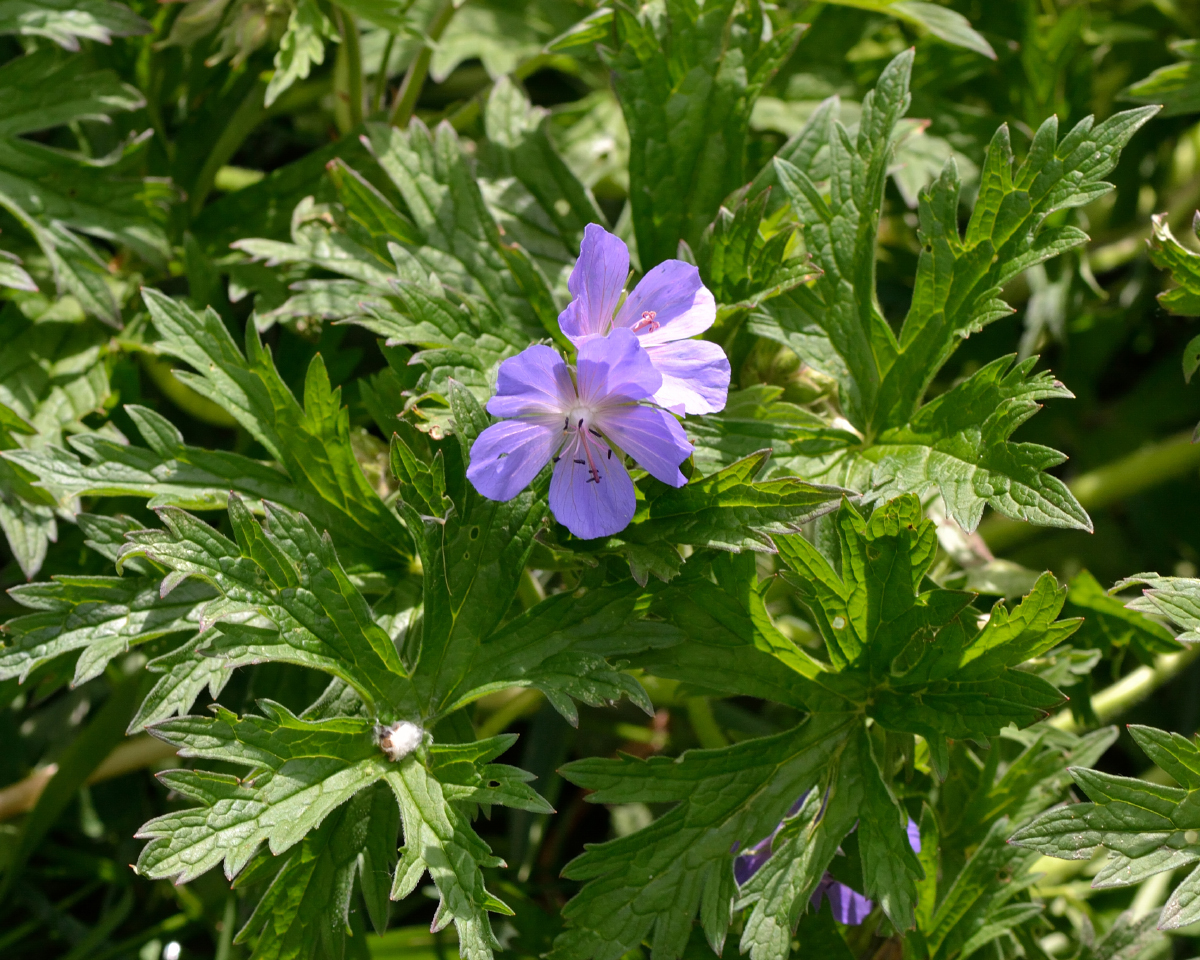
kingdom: Plantae
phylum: Tracheophyta
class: Magnoliopsida
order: Geraniales
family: Geraniaceae
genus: Geranium
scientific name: Geranium pratense
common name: Meadow crane's-bill
